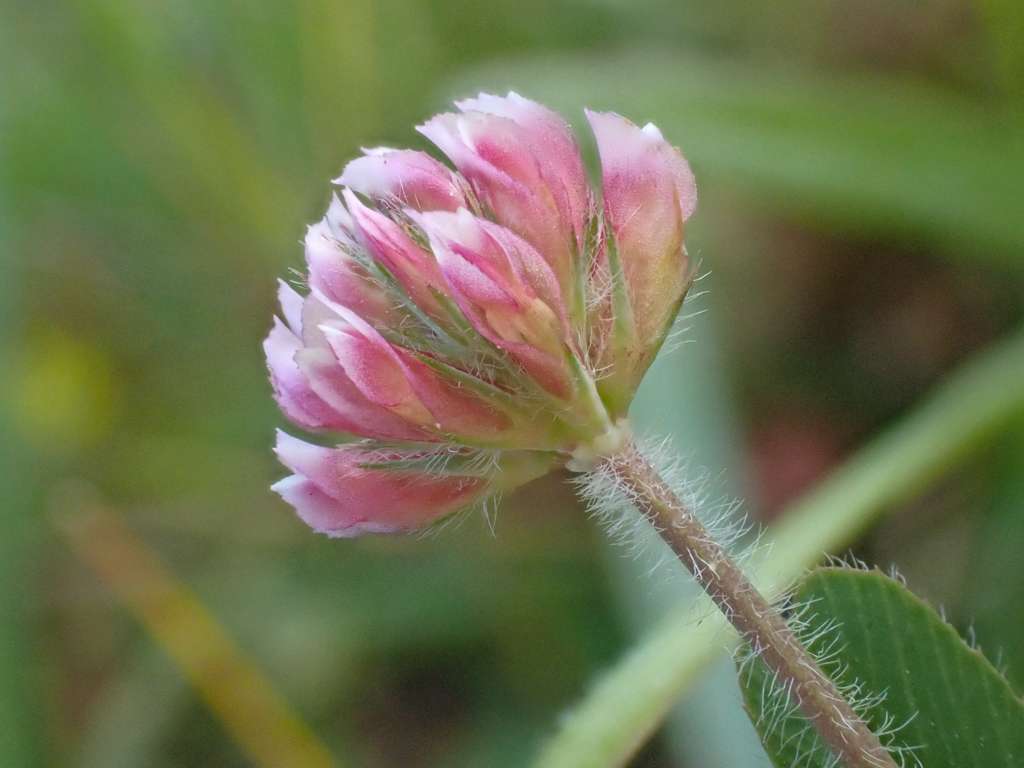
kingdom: Plantae
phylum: Tracheophyta
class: Magnoliopsida
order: Fabales
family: Fabaceae
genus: Trifolium
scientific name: Trifolium bifidum
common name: Notch-leaf clover
